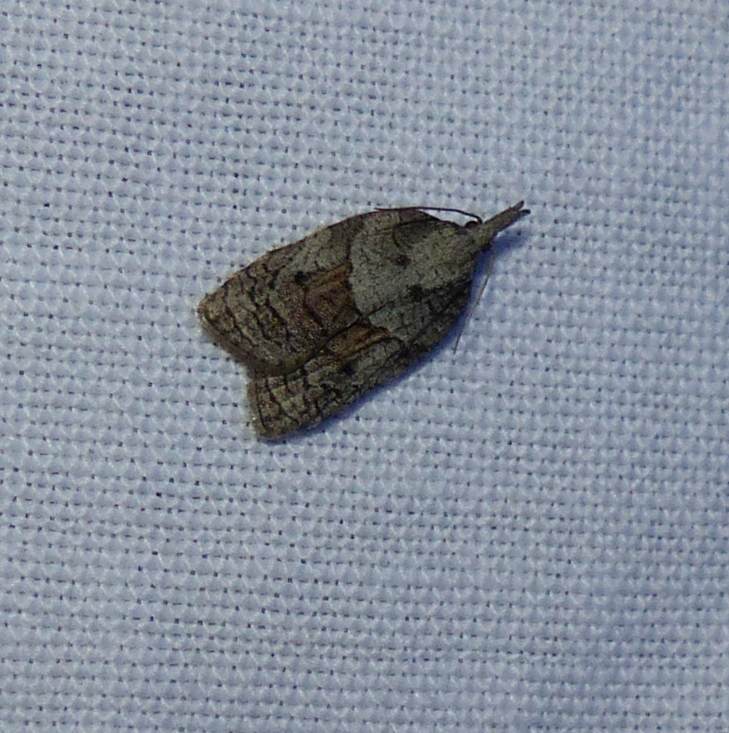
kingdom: Animalia
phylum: Arthropoda
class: Insecta
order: Lepidoptera
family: Tortricidae
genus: Platynota
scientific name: Platynota idaeusalis
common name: Tufted apple bud moth
